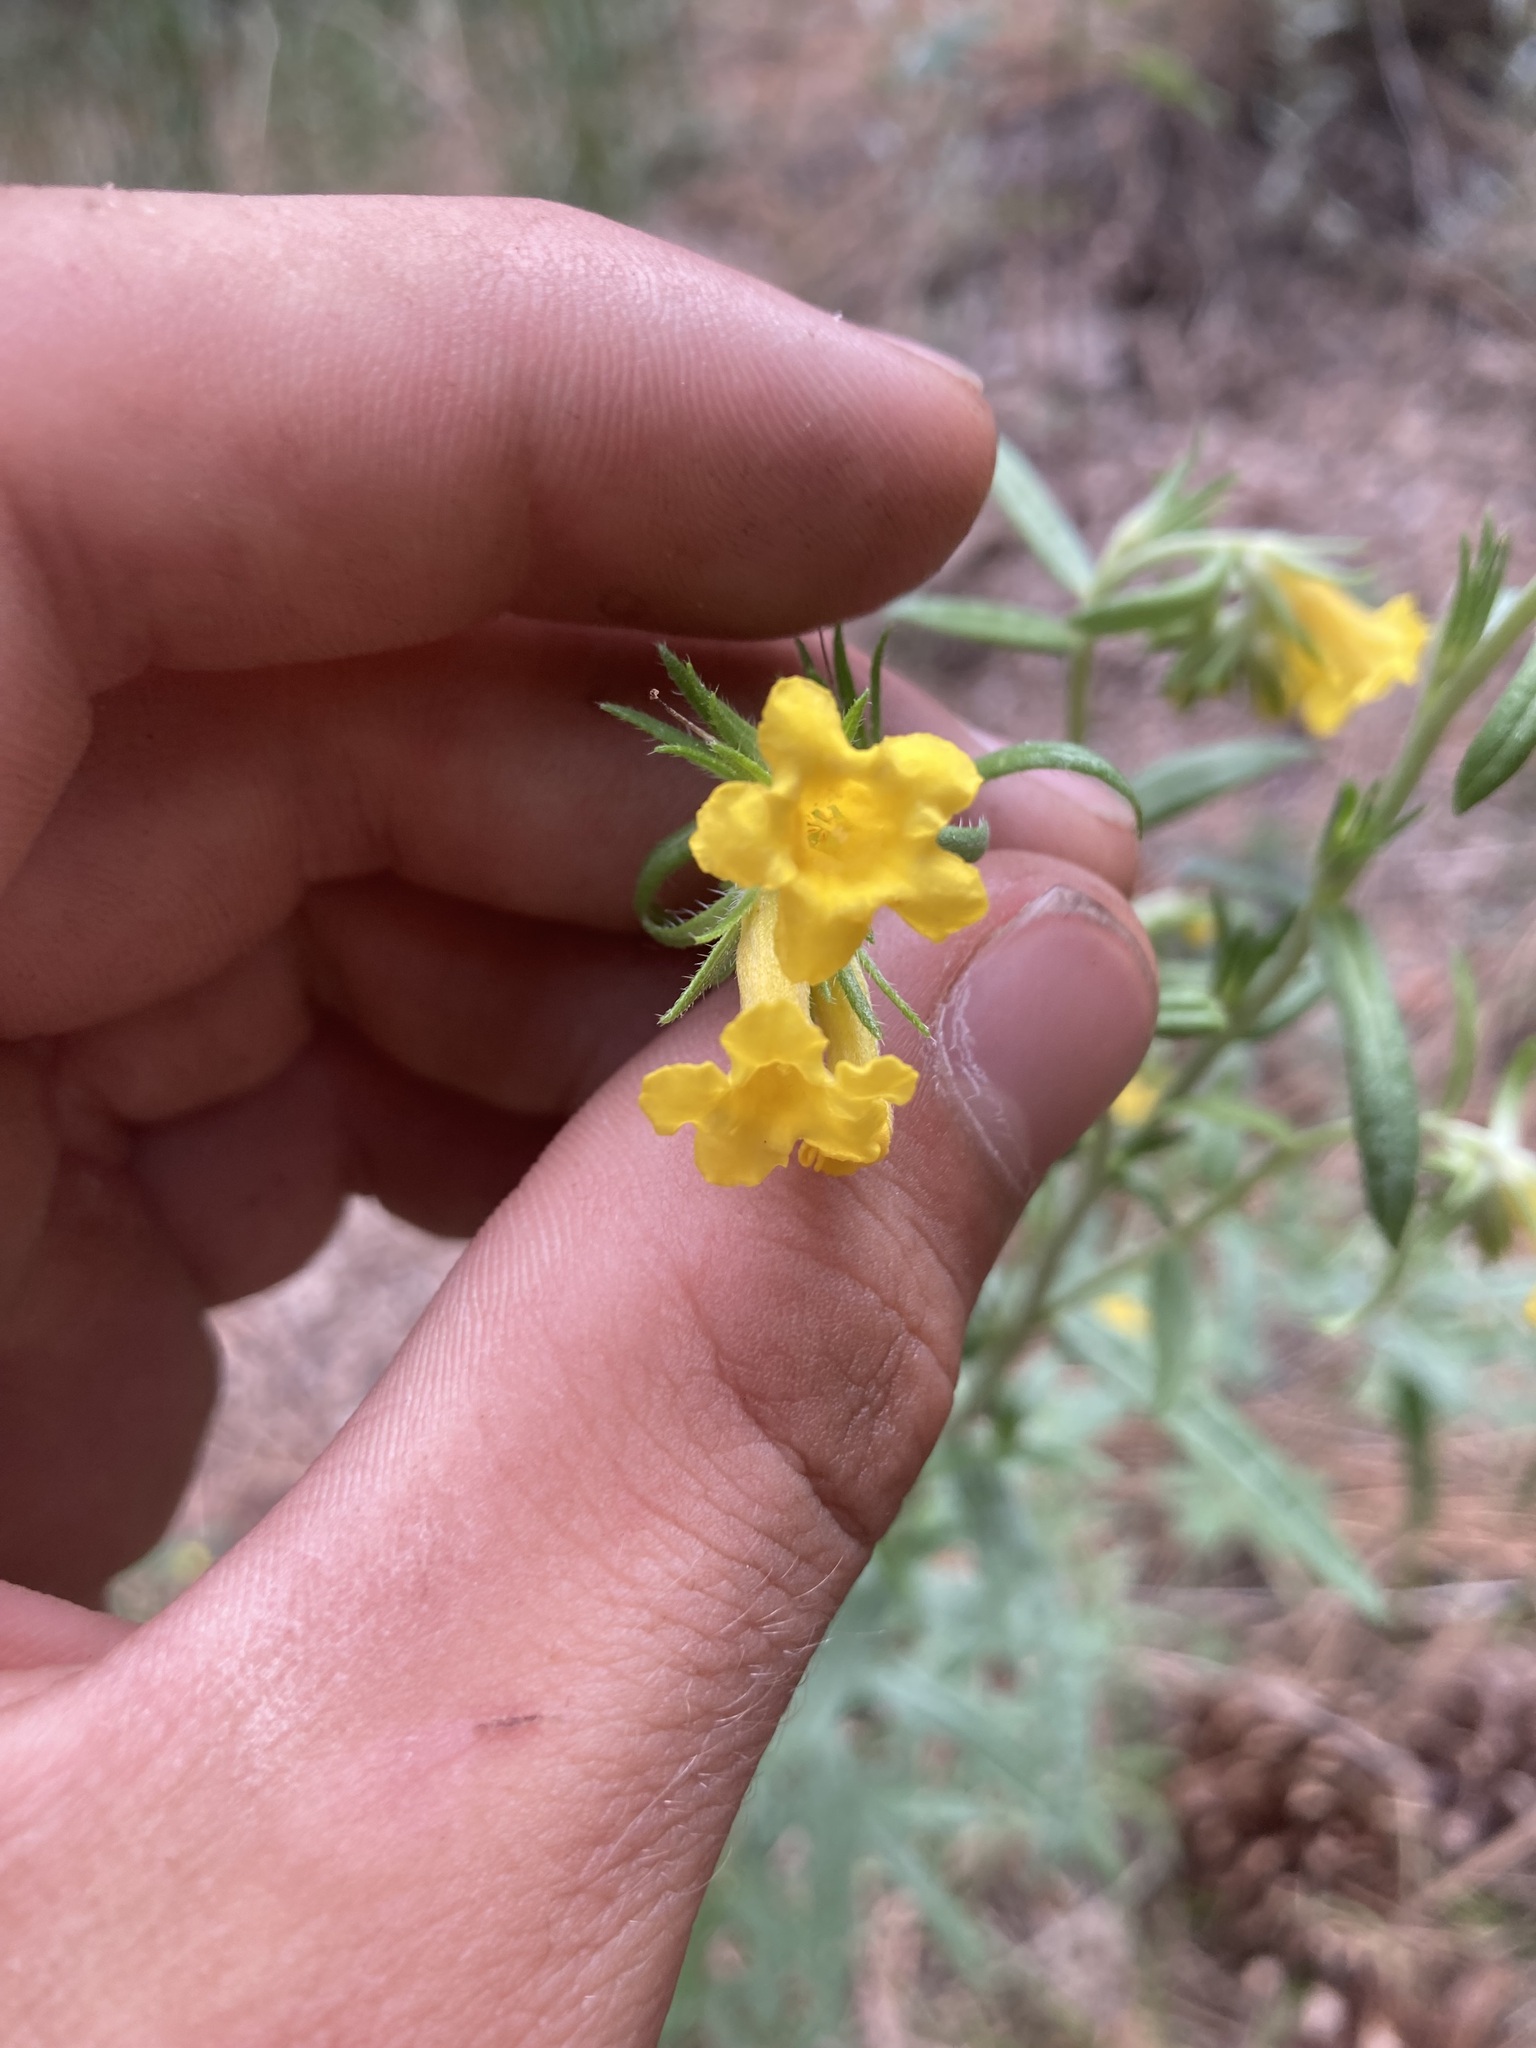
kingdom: Plantae
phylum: Tracheophyta
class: Magnoliopsida
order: Boraginales
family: Boraginaceae
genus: Lithospermum
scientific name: Lithospermum multiflorum
